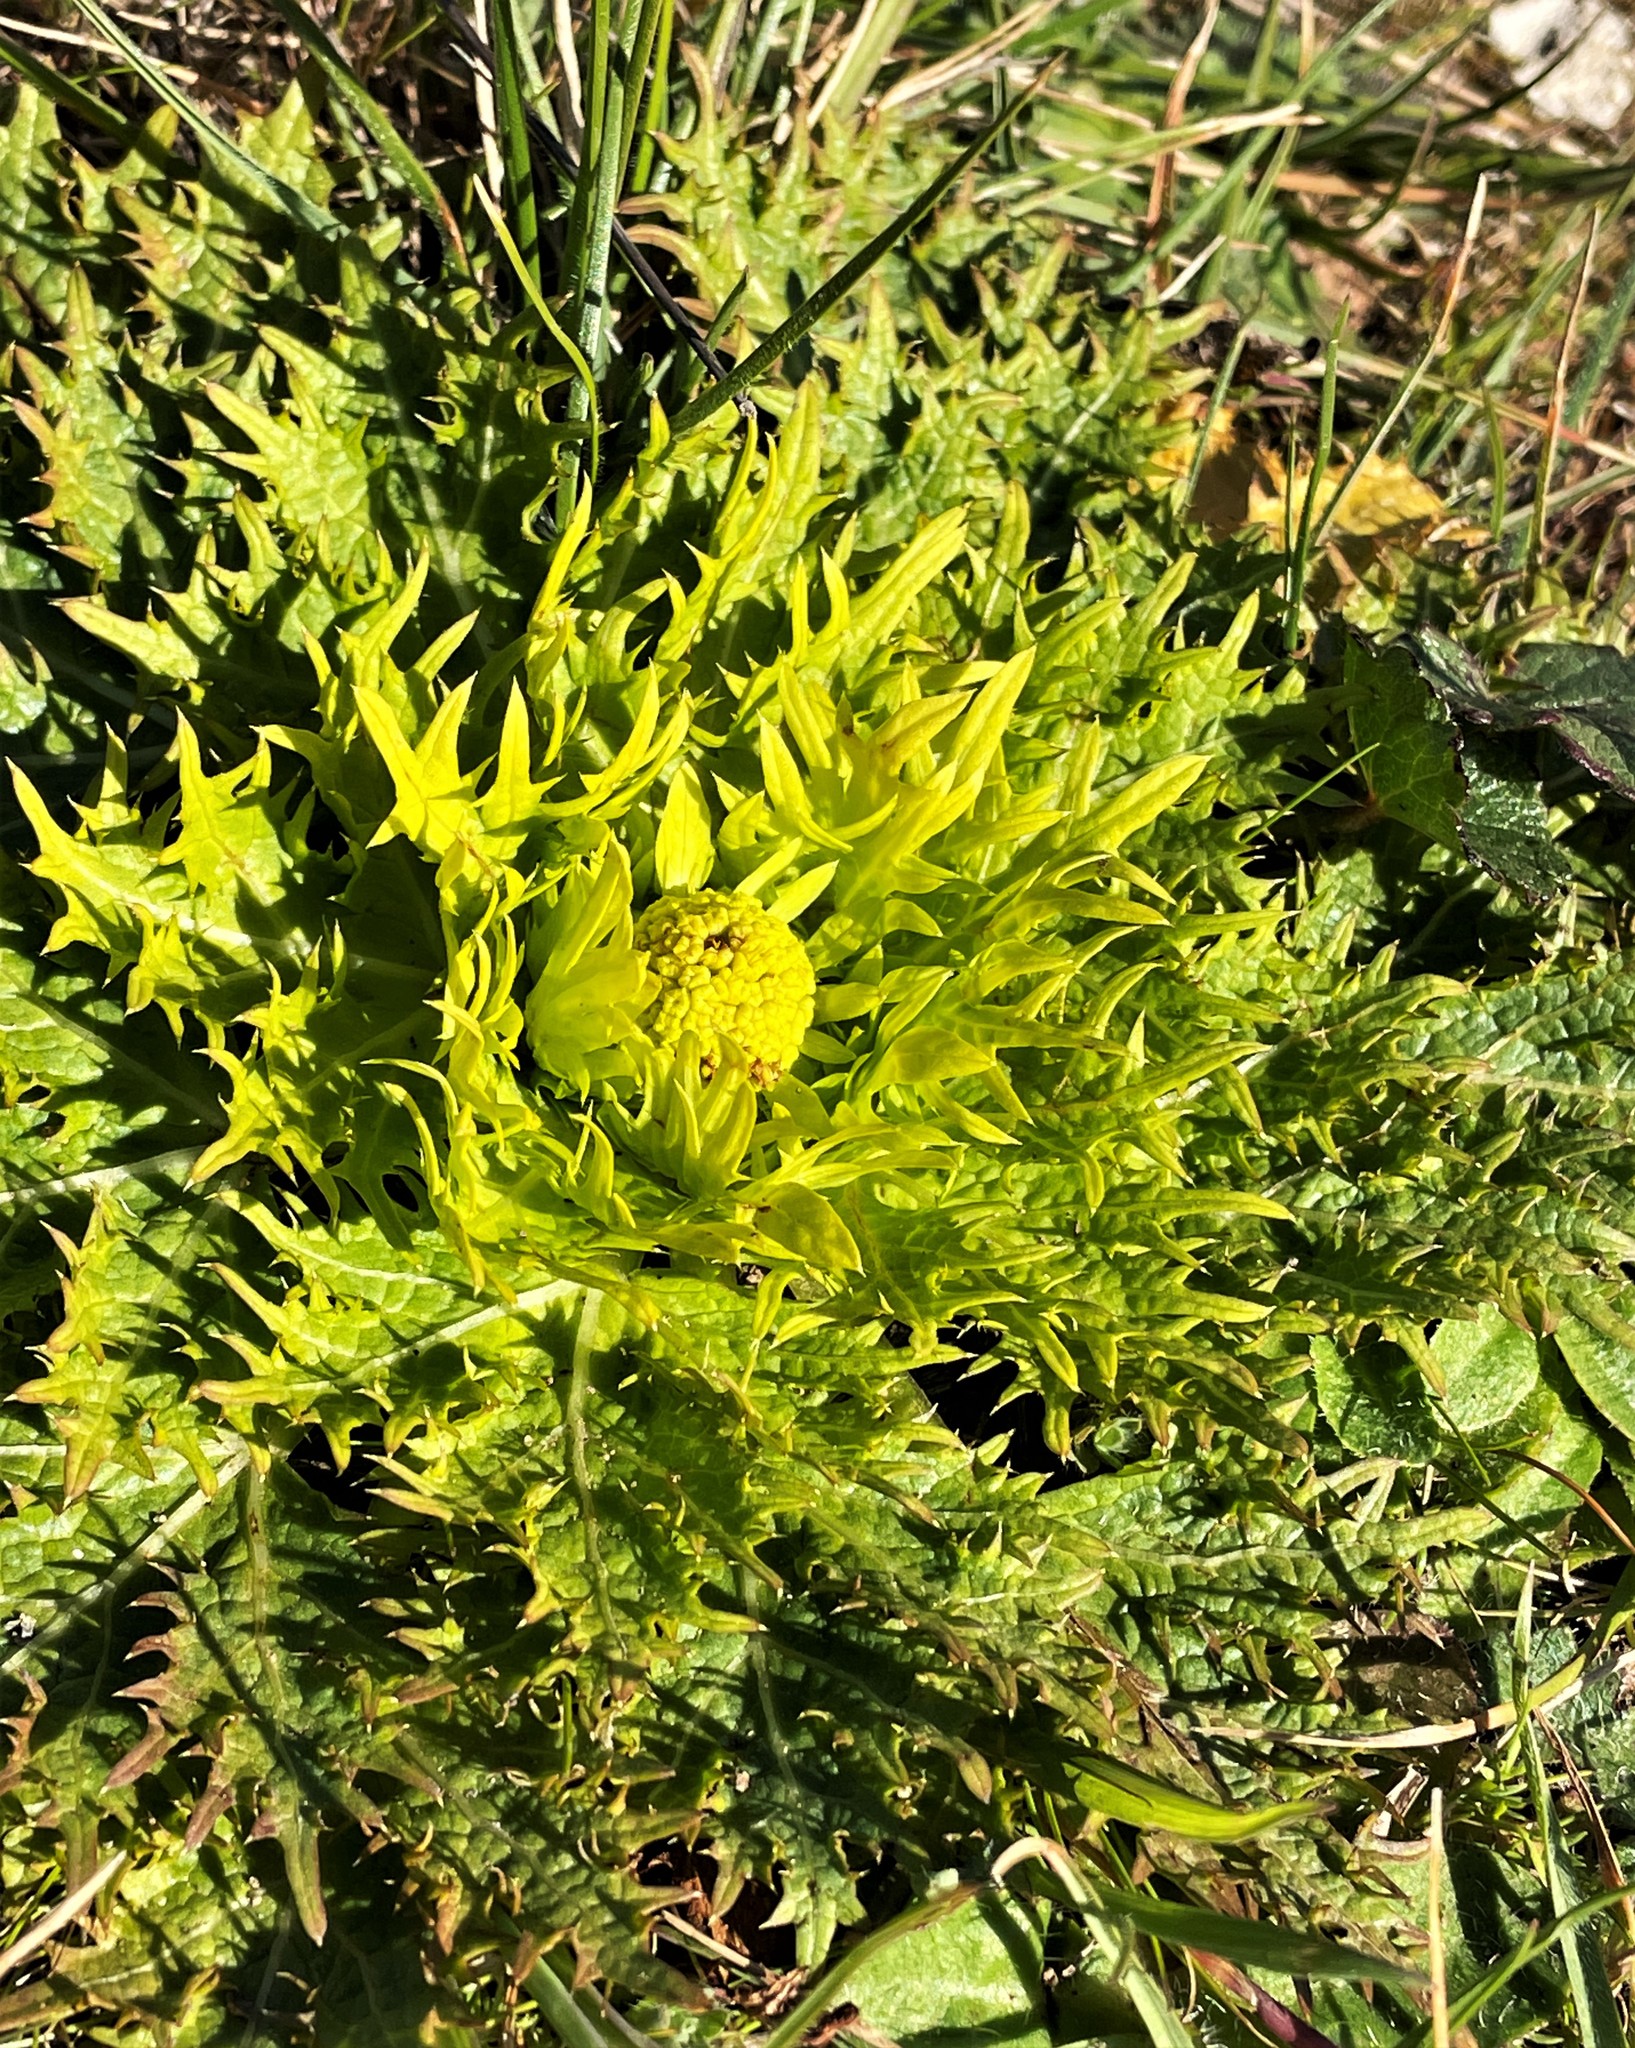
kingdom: Plantae
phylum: Tracheophyta
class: Magnoliopsida
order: Apiales
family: Apiaceae
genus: Sanicula
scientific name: Sanicula arctopoides
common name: Footsteps-of-spring
